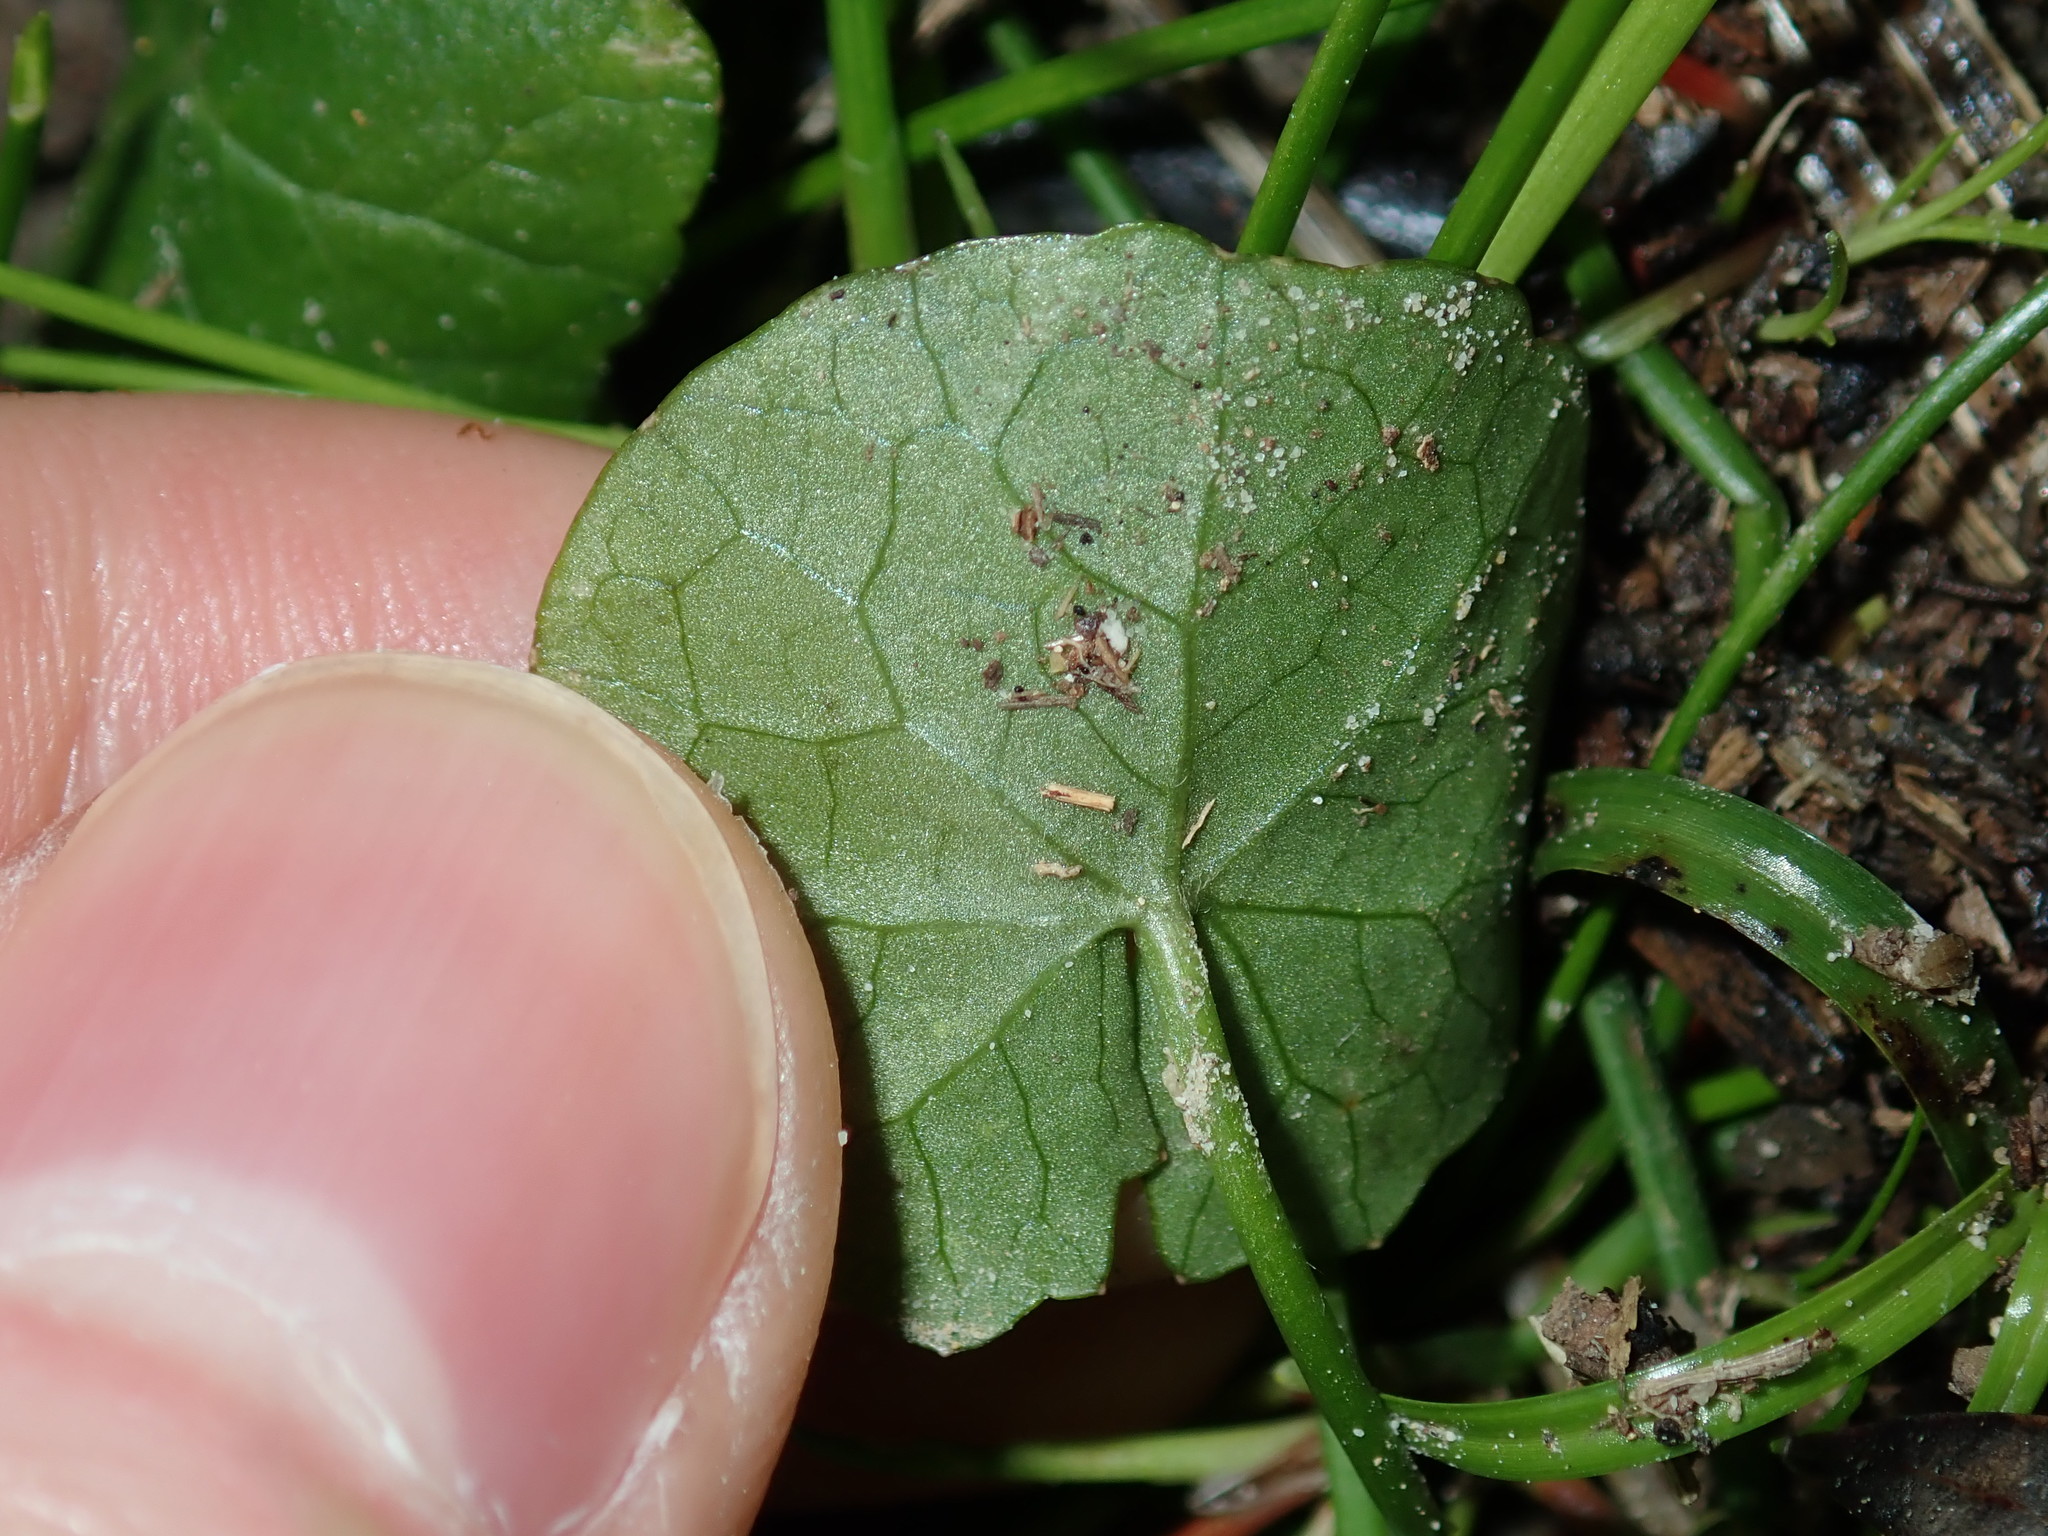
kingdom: Plantae
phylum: Tracheophyta
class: Magnoliopsida
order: Apiales
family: Apiaceae
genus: Centella
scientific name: Centella asiatica
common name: Spadeleaf
